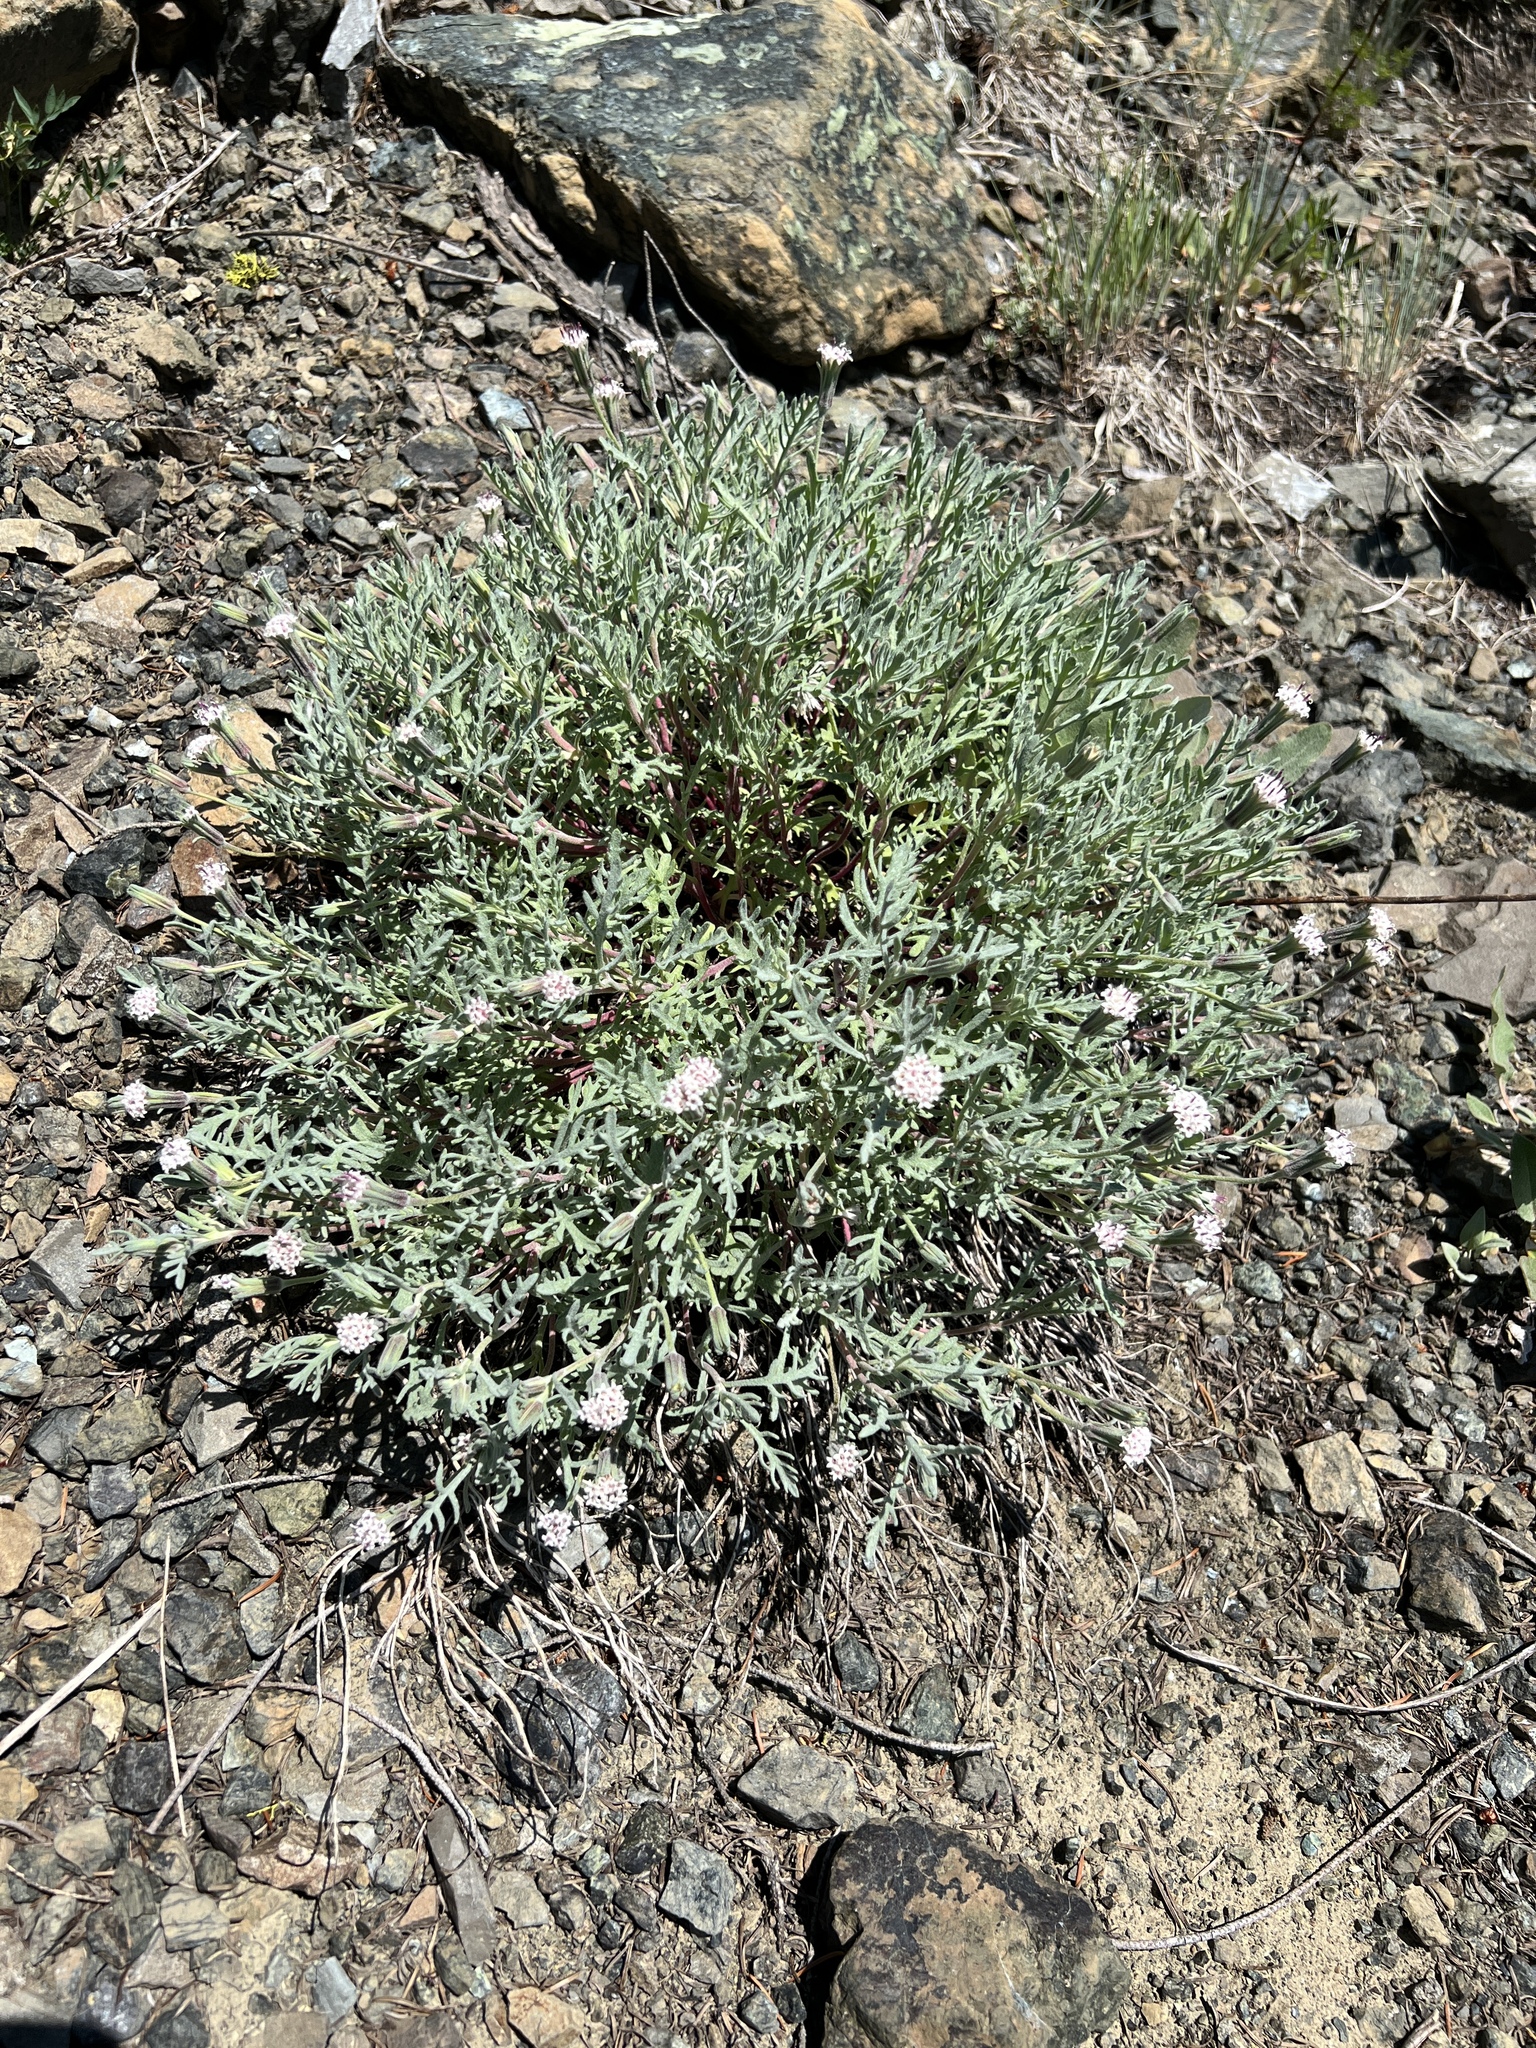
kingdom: Plantae
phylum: Tracheophyta
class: Magnoliopsida
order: Asterales
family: Asteraceae
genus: Chaenactis
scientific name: Chaenactis thompsonii
